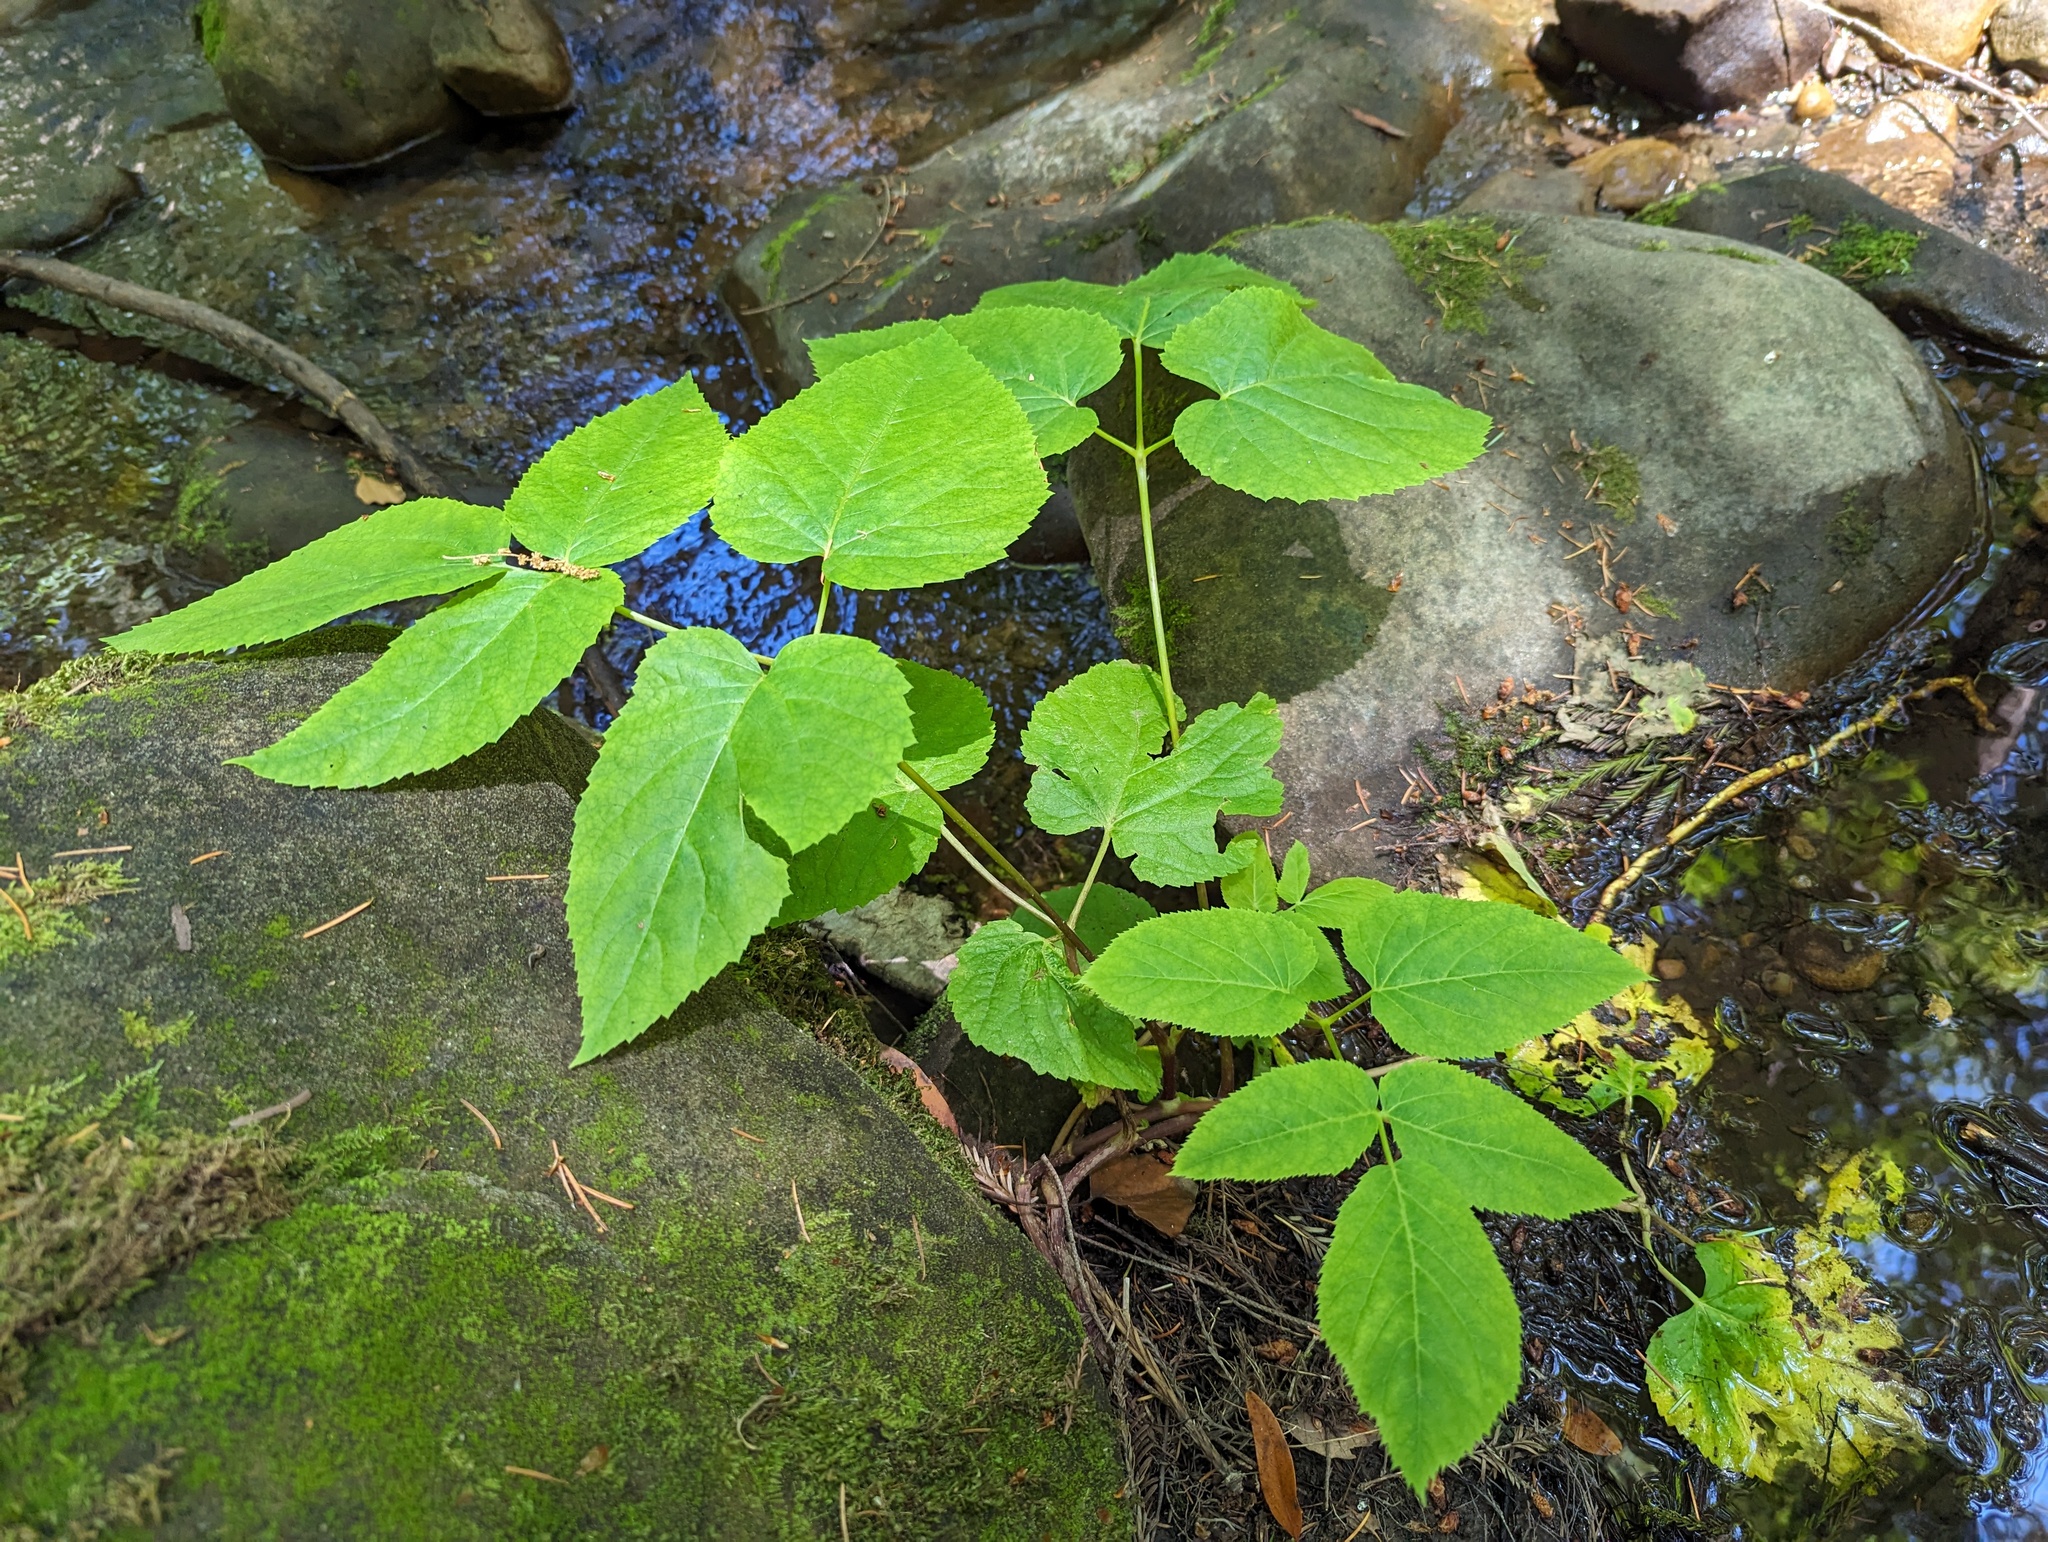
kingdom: Plantae
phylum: Tracheophyta
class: Magnoliopsida
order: Apiales
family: Araliaceae
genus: Aralia
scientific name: Aralia californica
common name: California-ginseng
